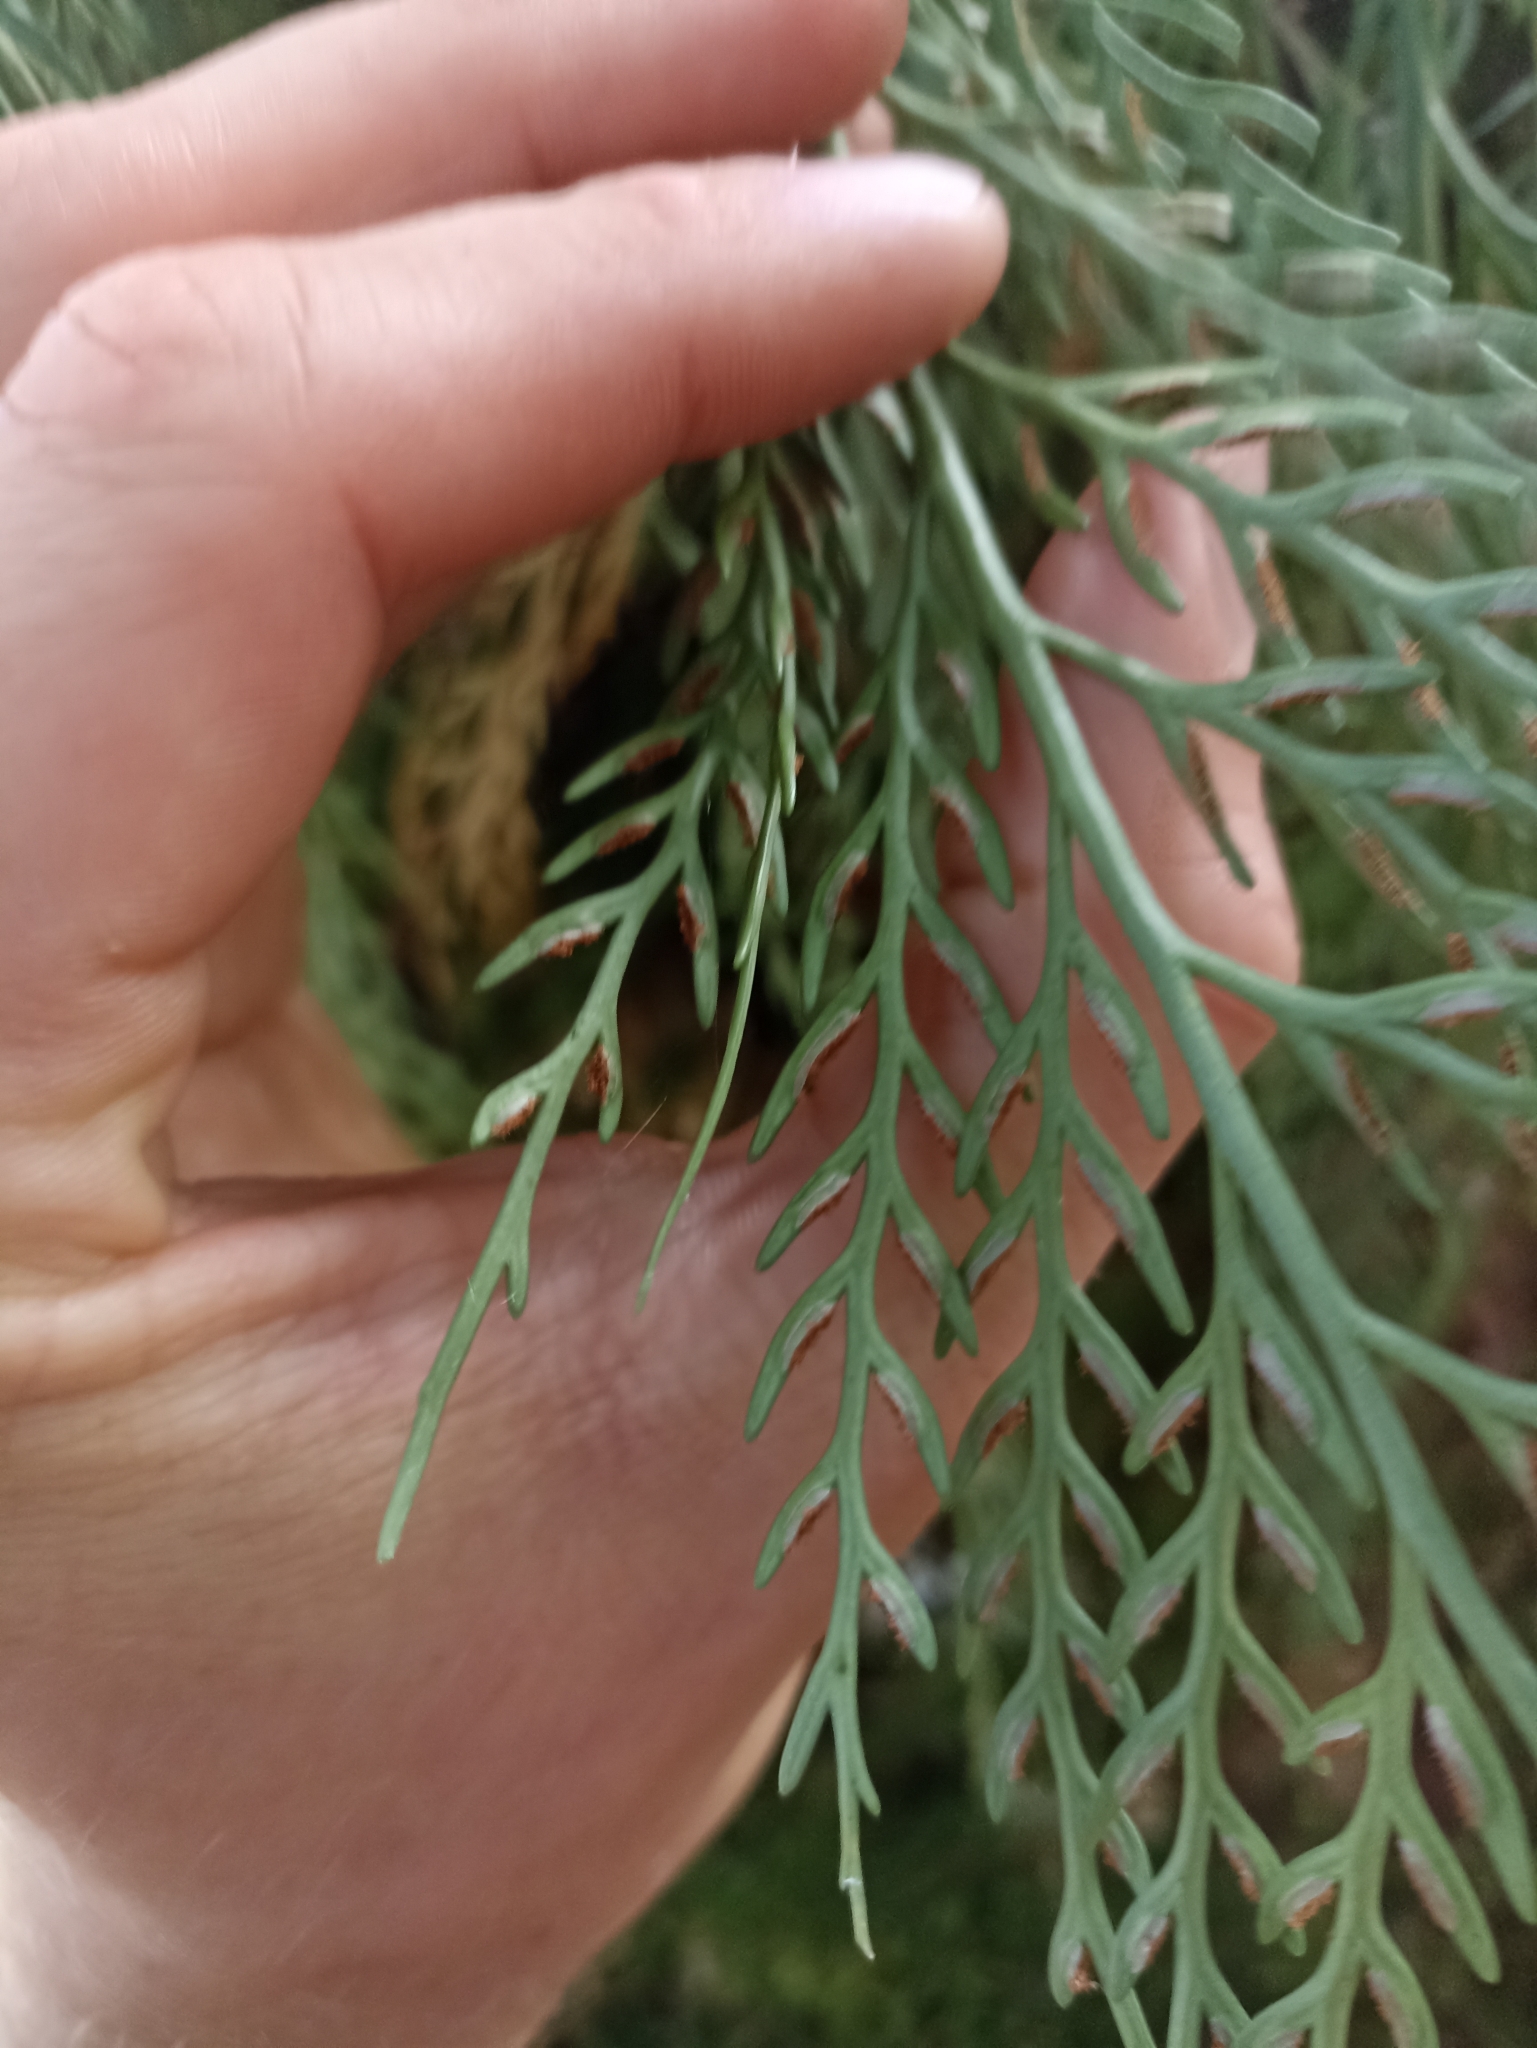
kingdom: Plantae
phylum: Tracheophyta
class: Polypodiopsida
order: Polypodiales
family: Aspleniaceae
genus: Asplenium
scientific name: Asplenium flaccidum
